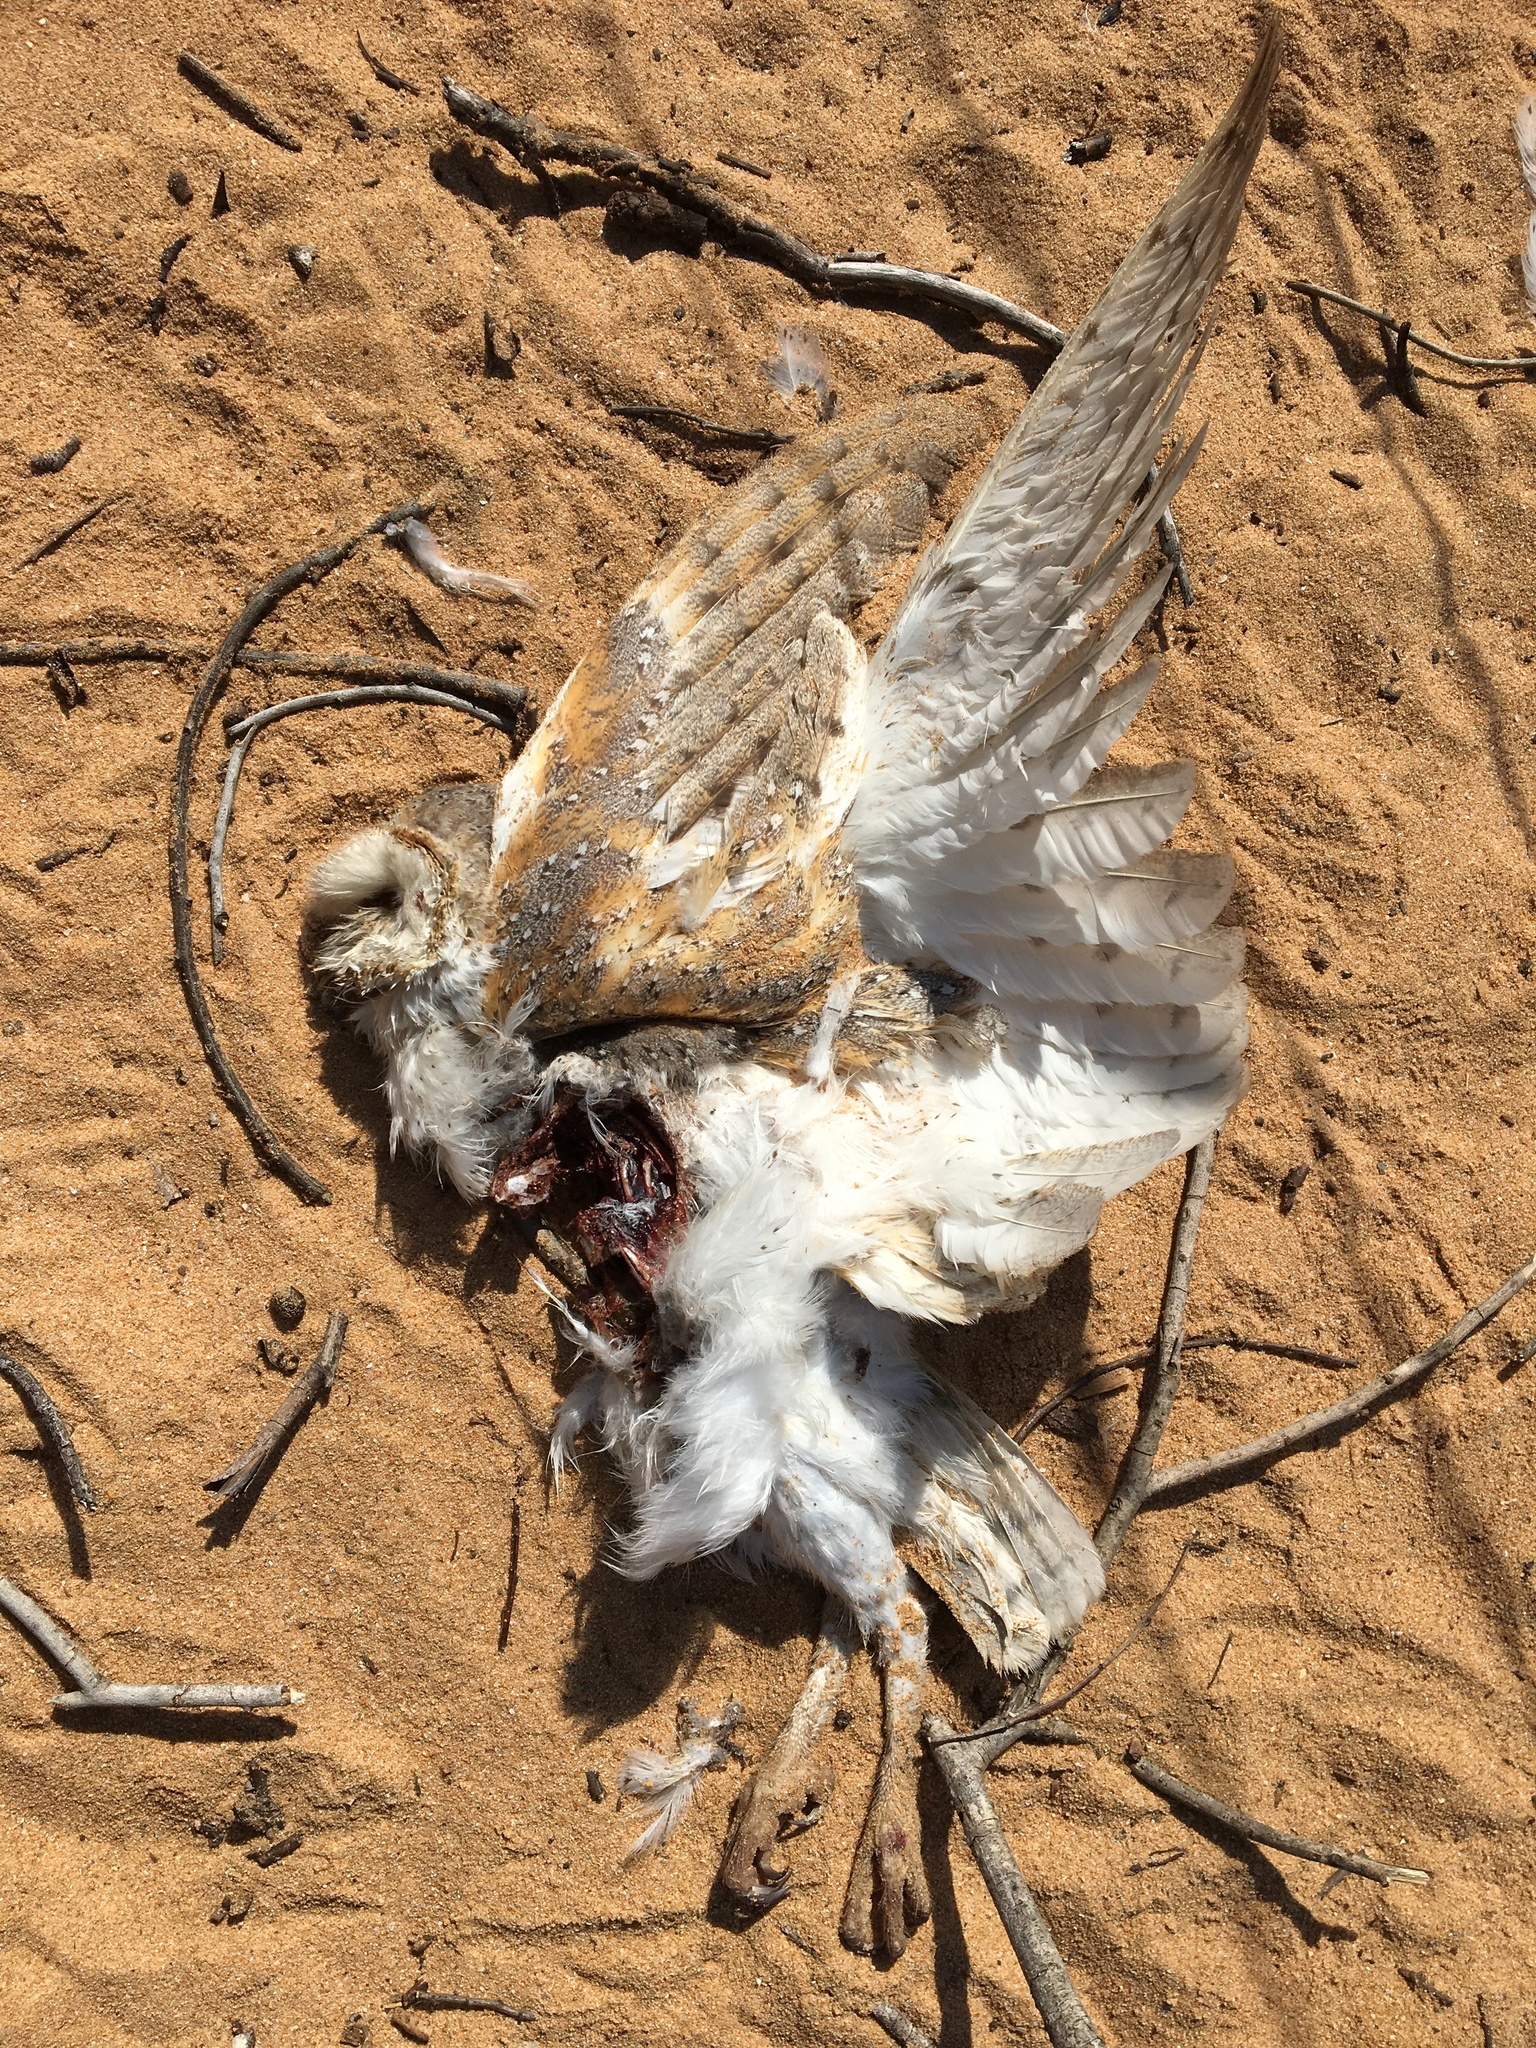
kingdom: Animalia
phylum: Chordata
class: Aves
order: Strigiformes
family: Tytonidae
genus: Tyto
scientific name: Tyto javanica
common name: Eastern barn owl
